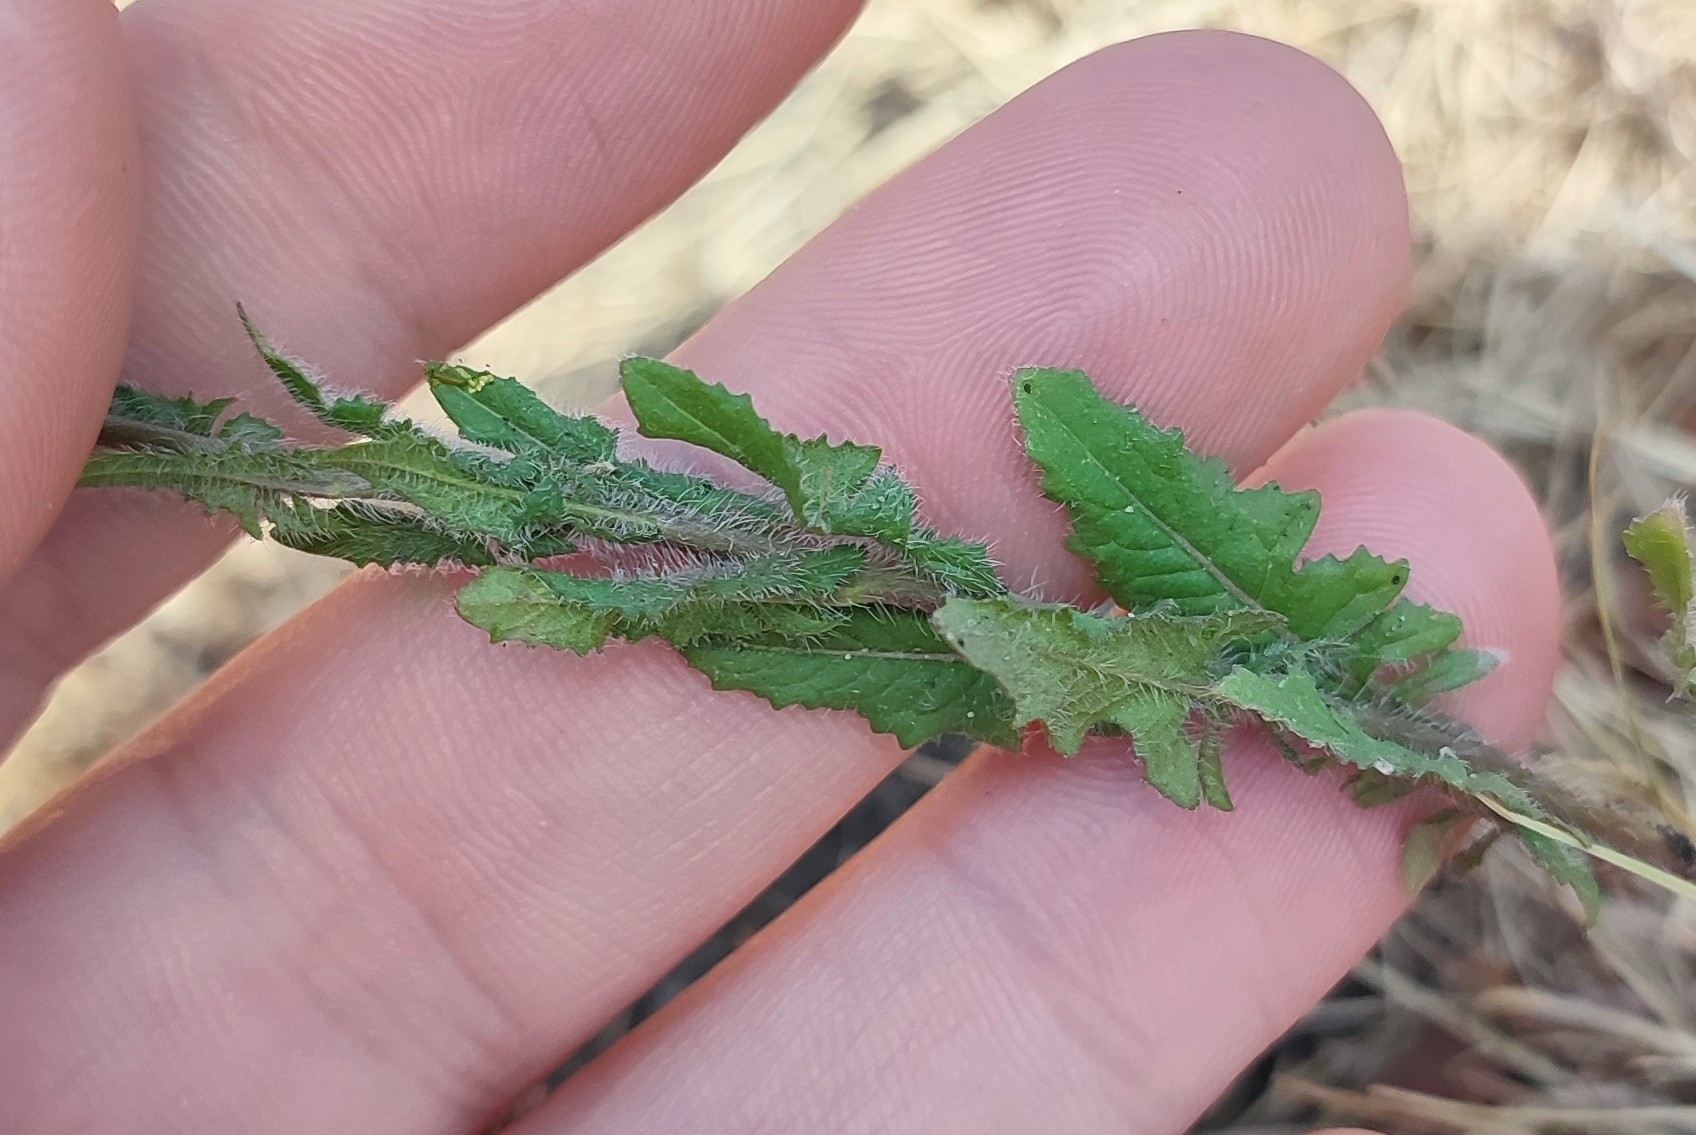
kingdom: Plantae
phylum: Tracheophyta
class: Magnoliopsida
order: Brassicales
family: Brassicaceae
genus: Sisymbrium
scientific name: Sisymbrium loeselii
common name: False london-rocket
